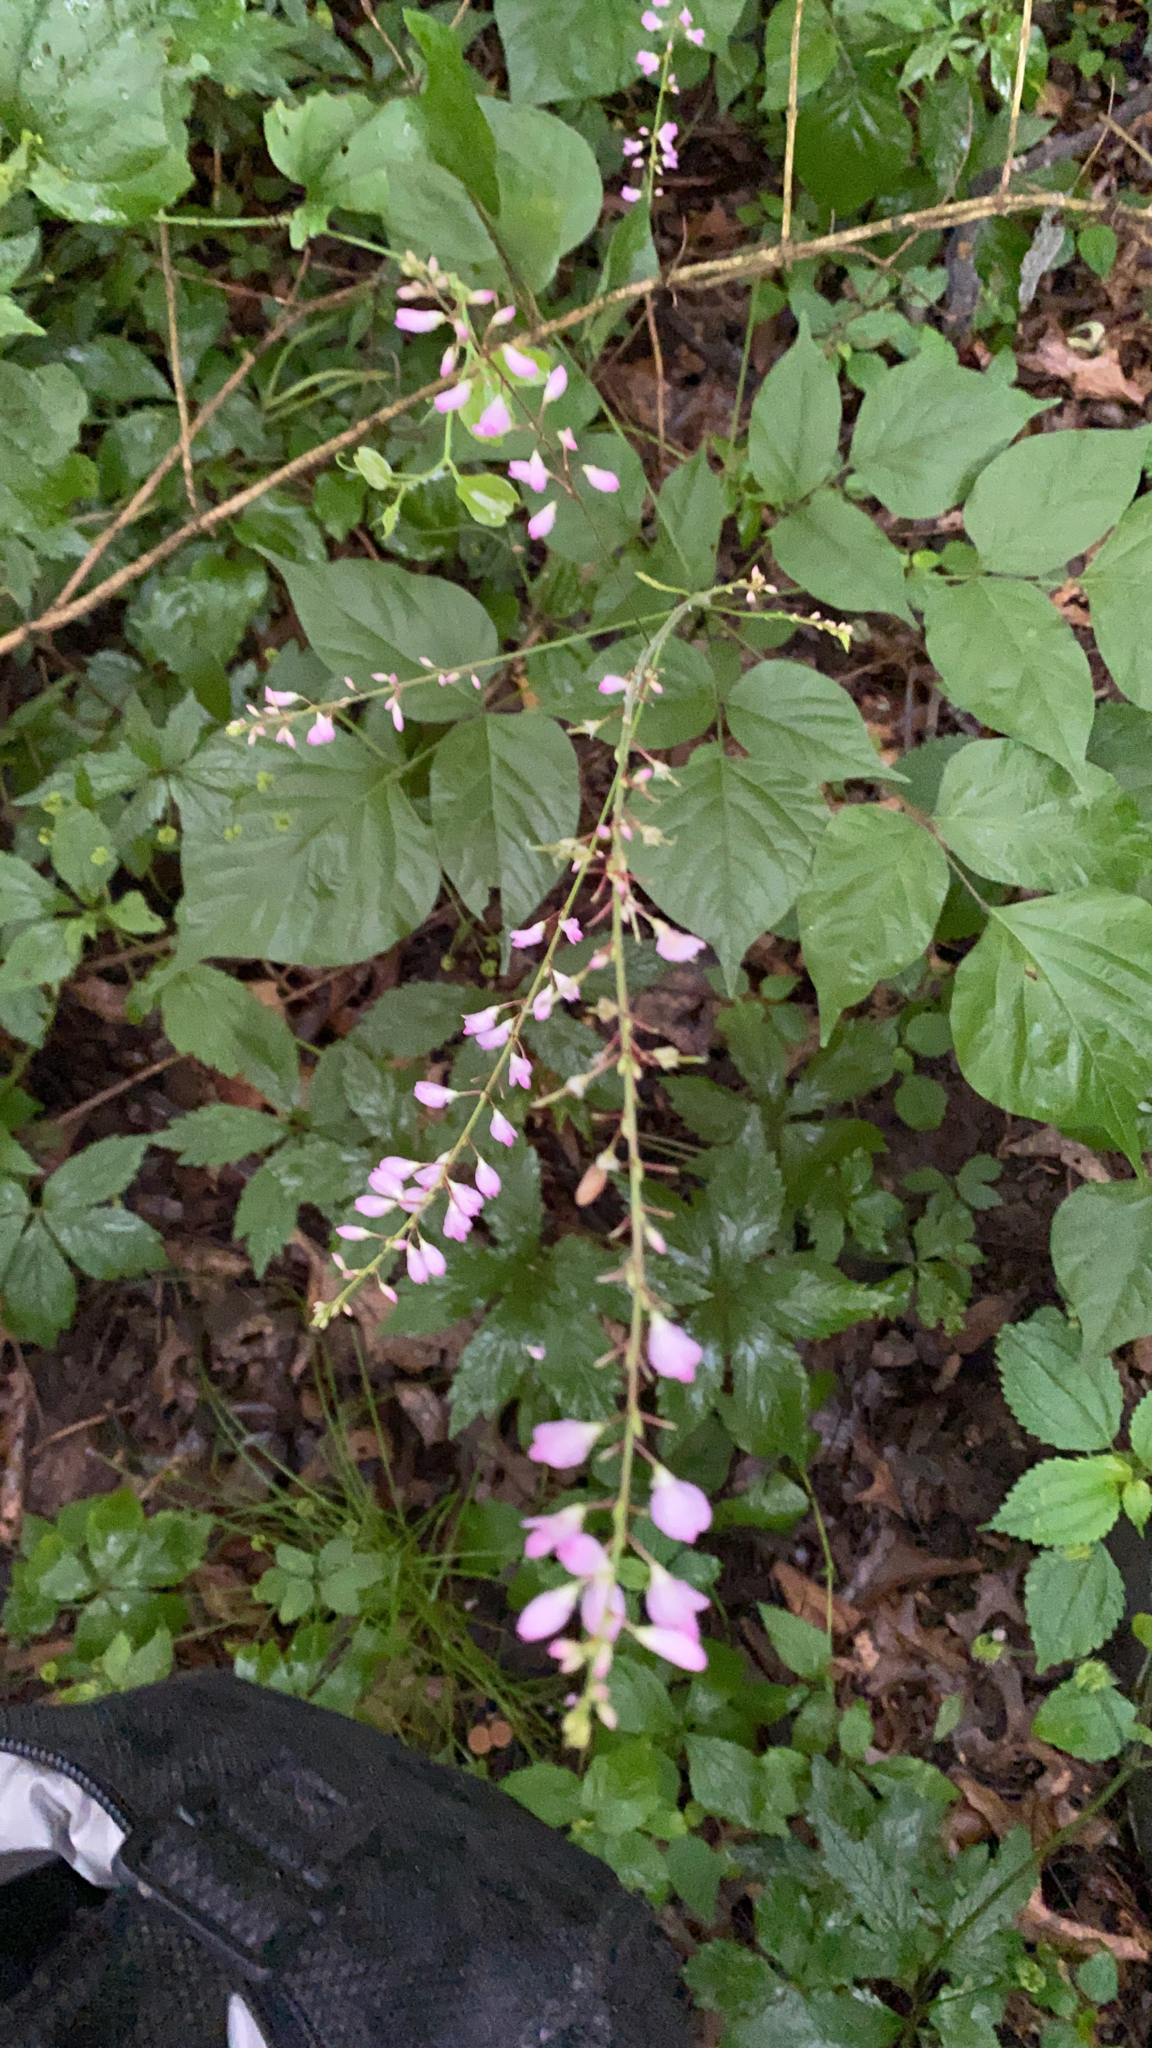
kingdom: Plantae
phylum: Tracheophyta
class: Magnoliopsida
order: Fabales
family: Fabaceae
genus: Hylodesmum
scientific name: Hylodesmum glutinosum
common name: Clustered-leaved tick-trefoil
